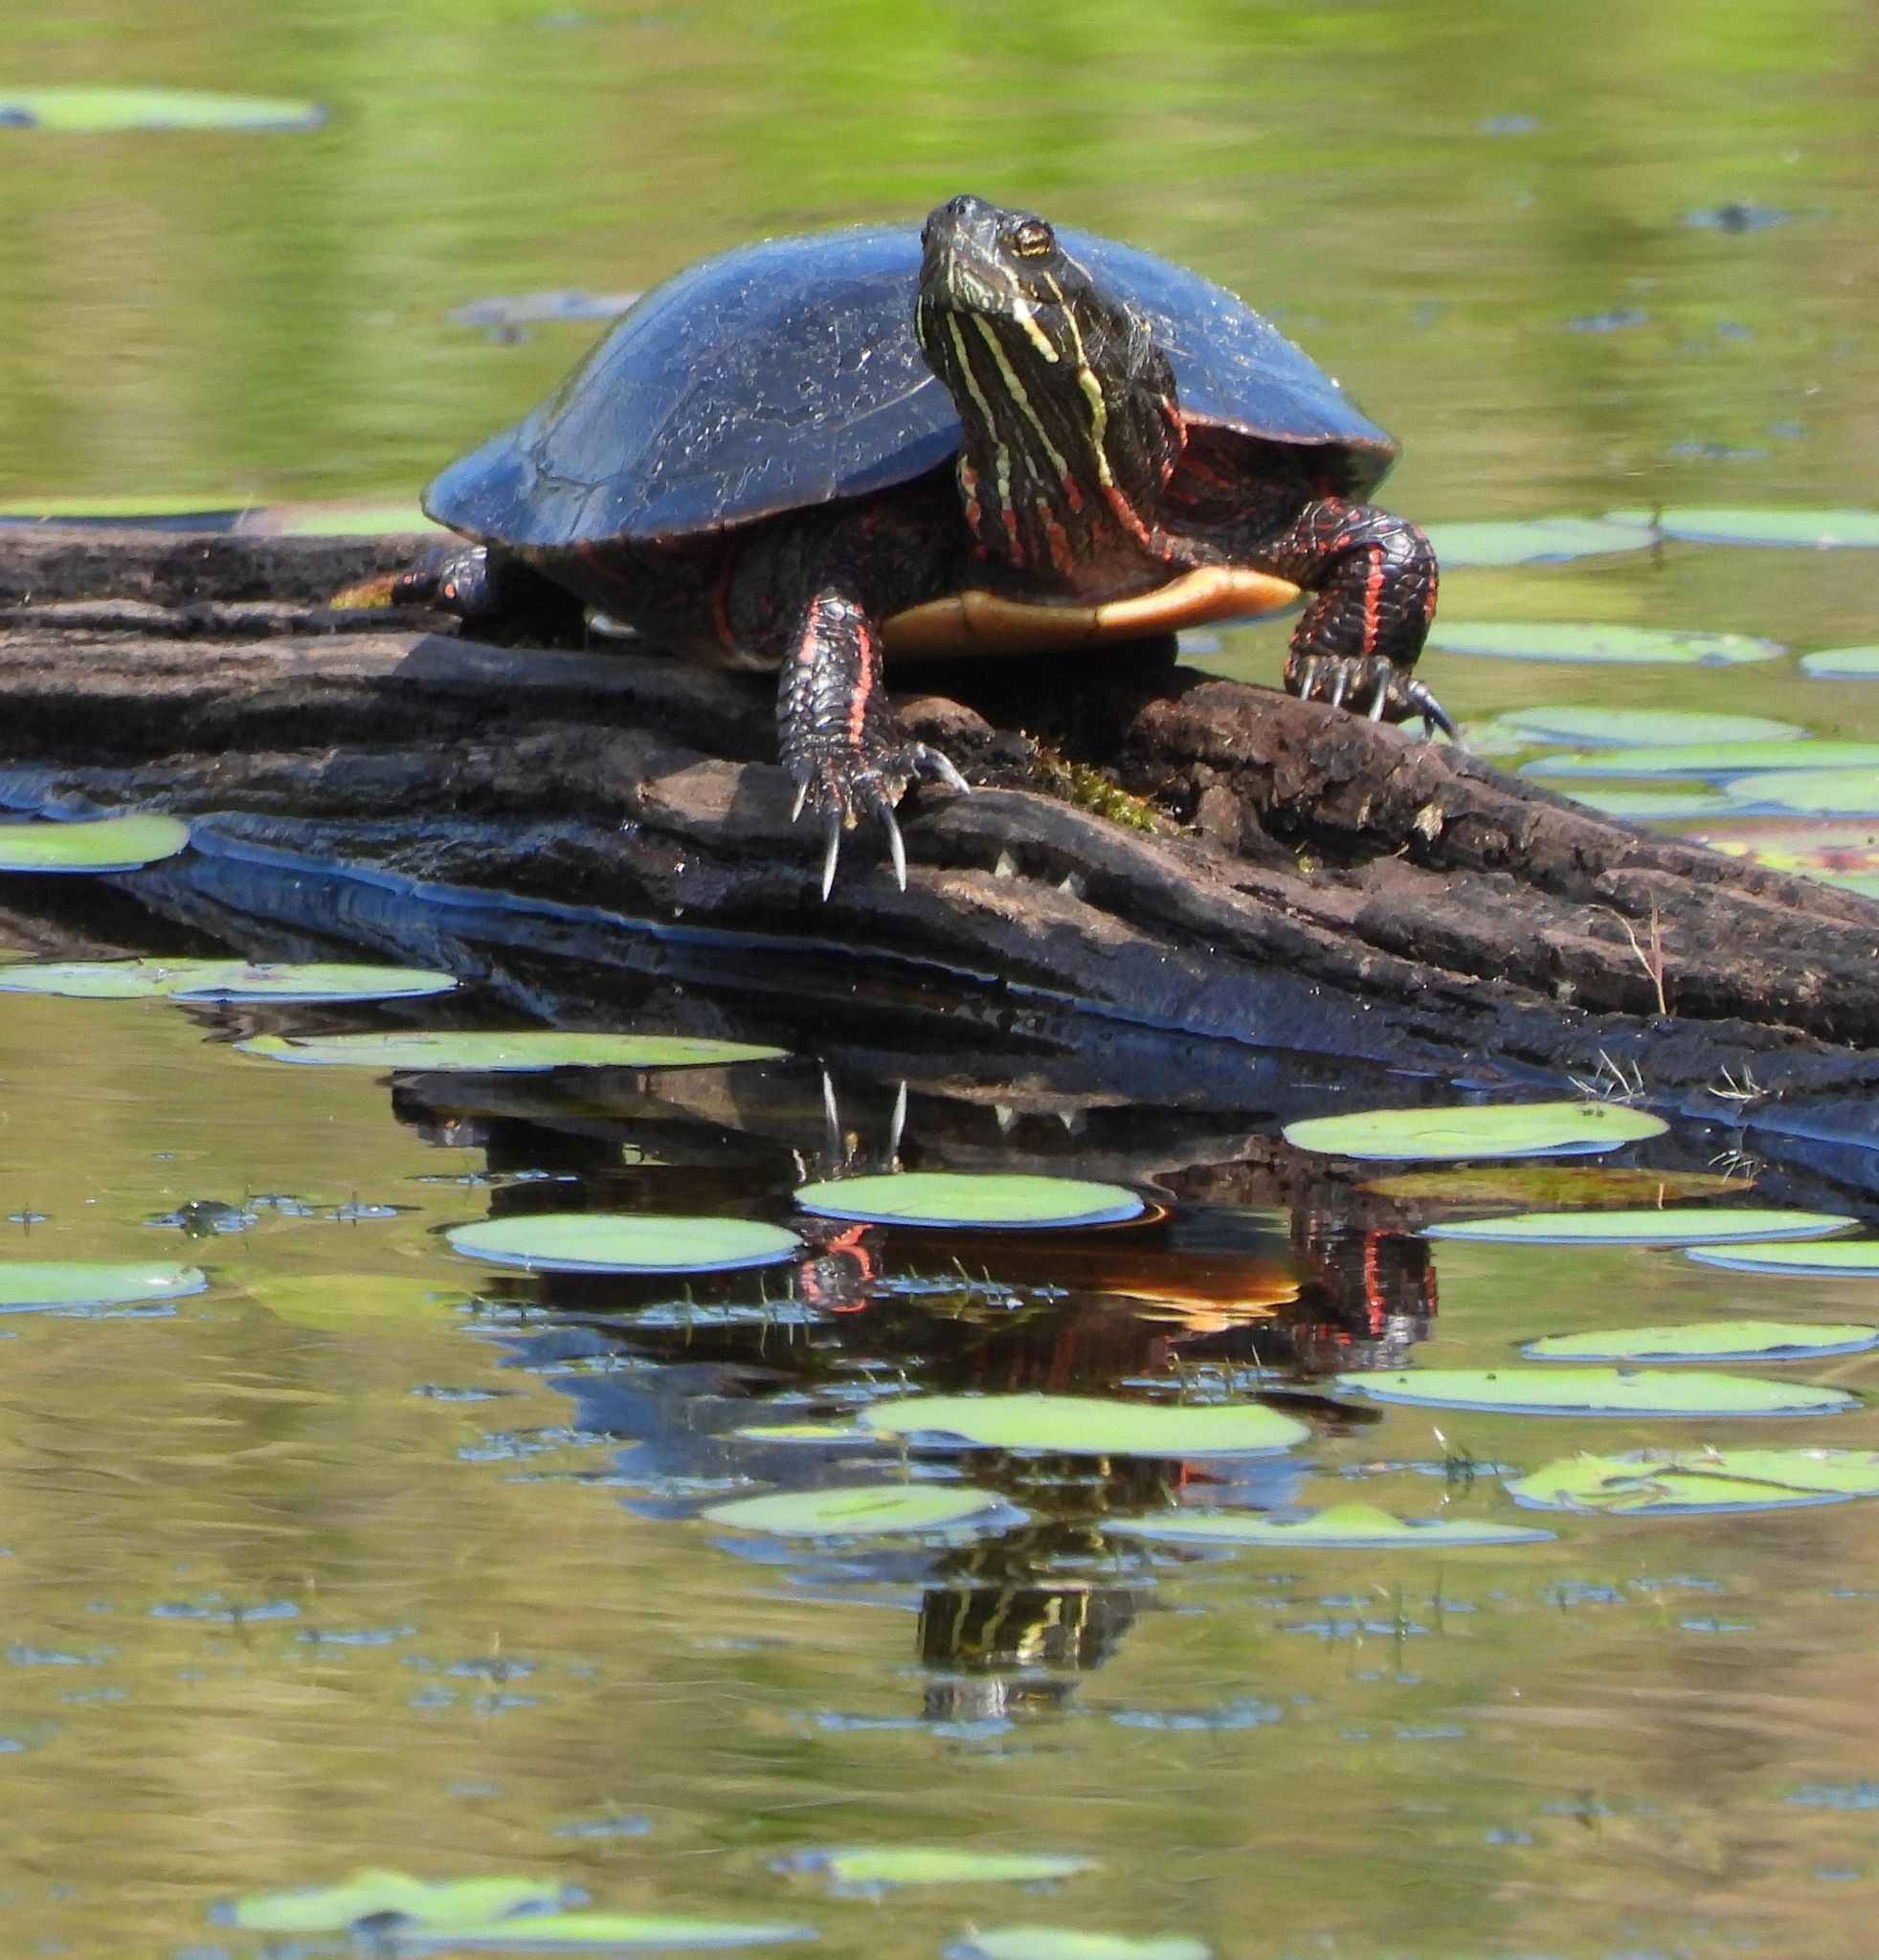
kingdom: Animalia
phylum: Chordata
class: Testudines
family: Emydidae
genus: Chrysemys
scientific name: Chrysemys picta
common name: Painted turtle
